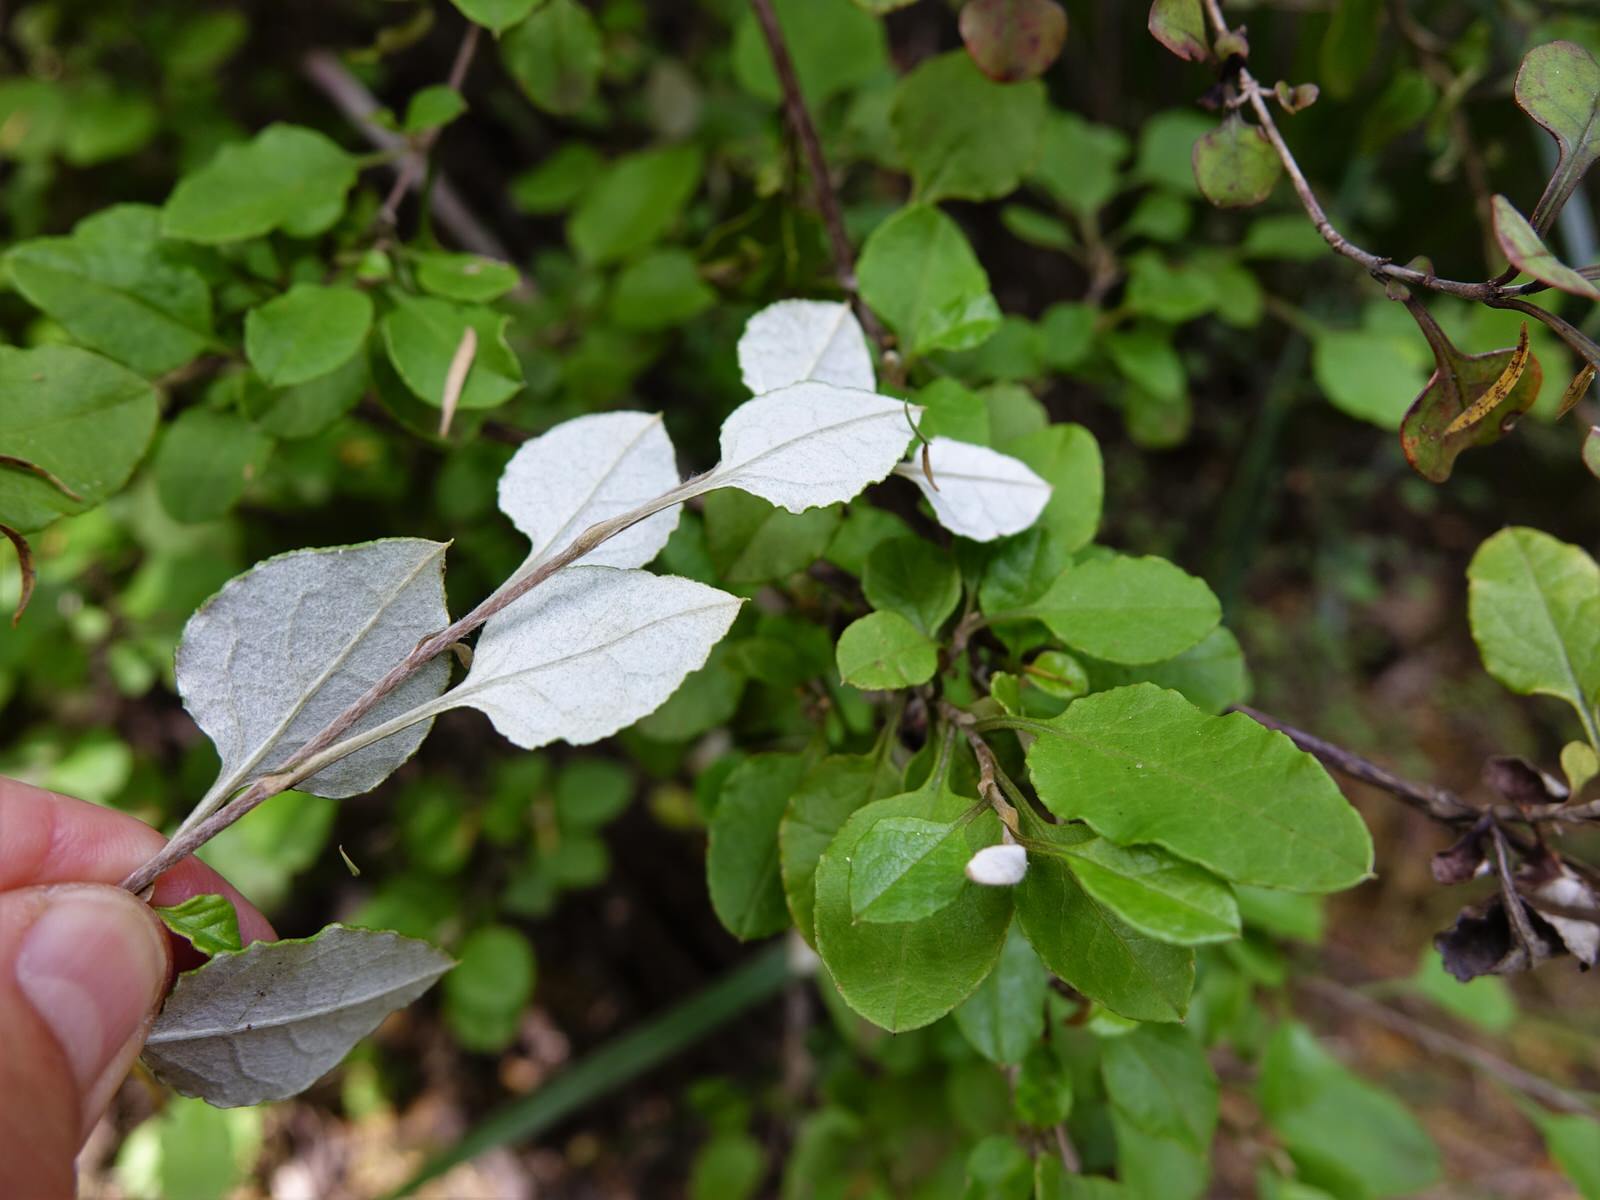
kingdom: Plantae
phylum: Tracheophyta
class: Magnoliopsida
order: Asterales
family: Asteraceae
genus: Ozothamnus
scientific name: Ozothamnus glomeratus
